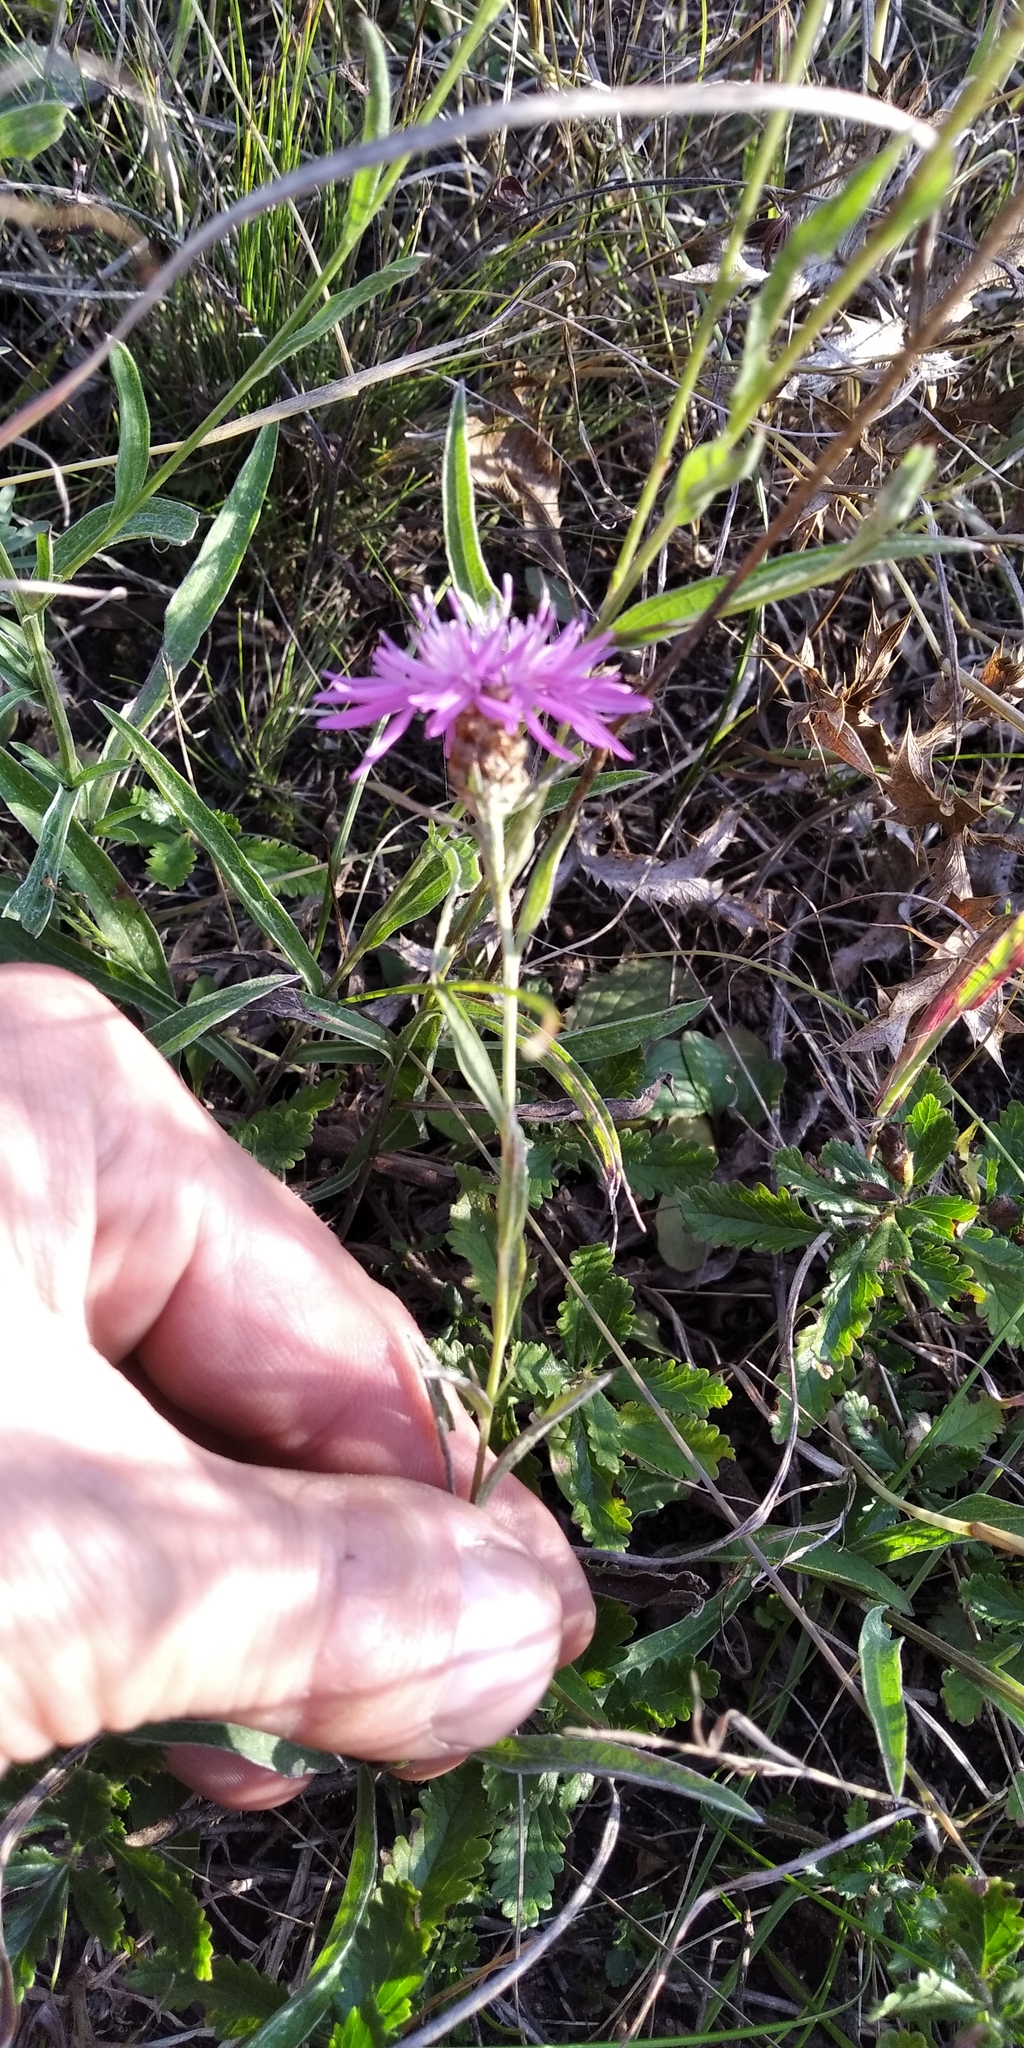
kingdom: Plantae
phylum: Tracheophyta
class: Magnoliopsida
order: Asterales
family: Asteraceae
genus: Centaurea
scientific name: Centaurea jacea
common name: Brown knapweed
